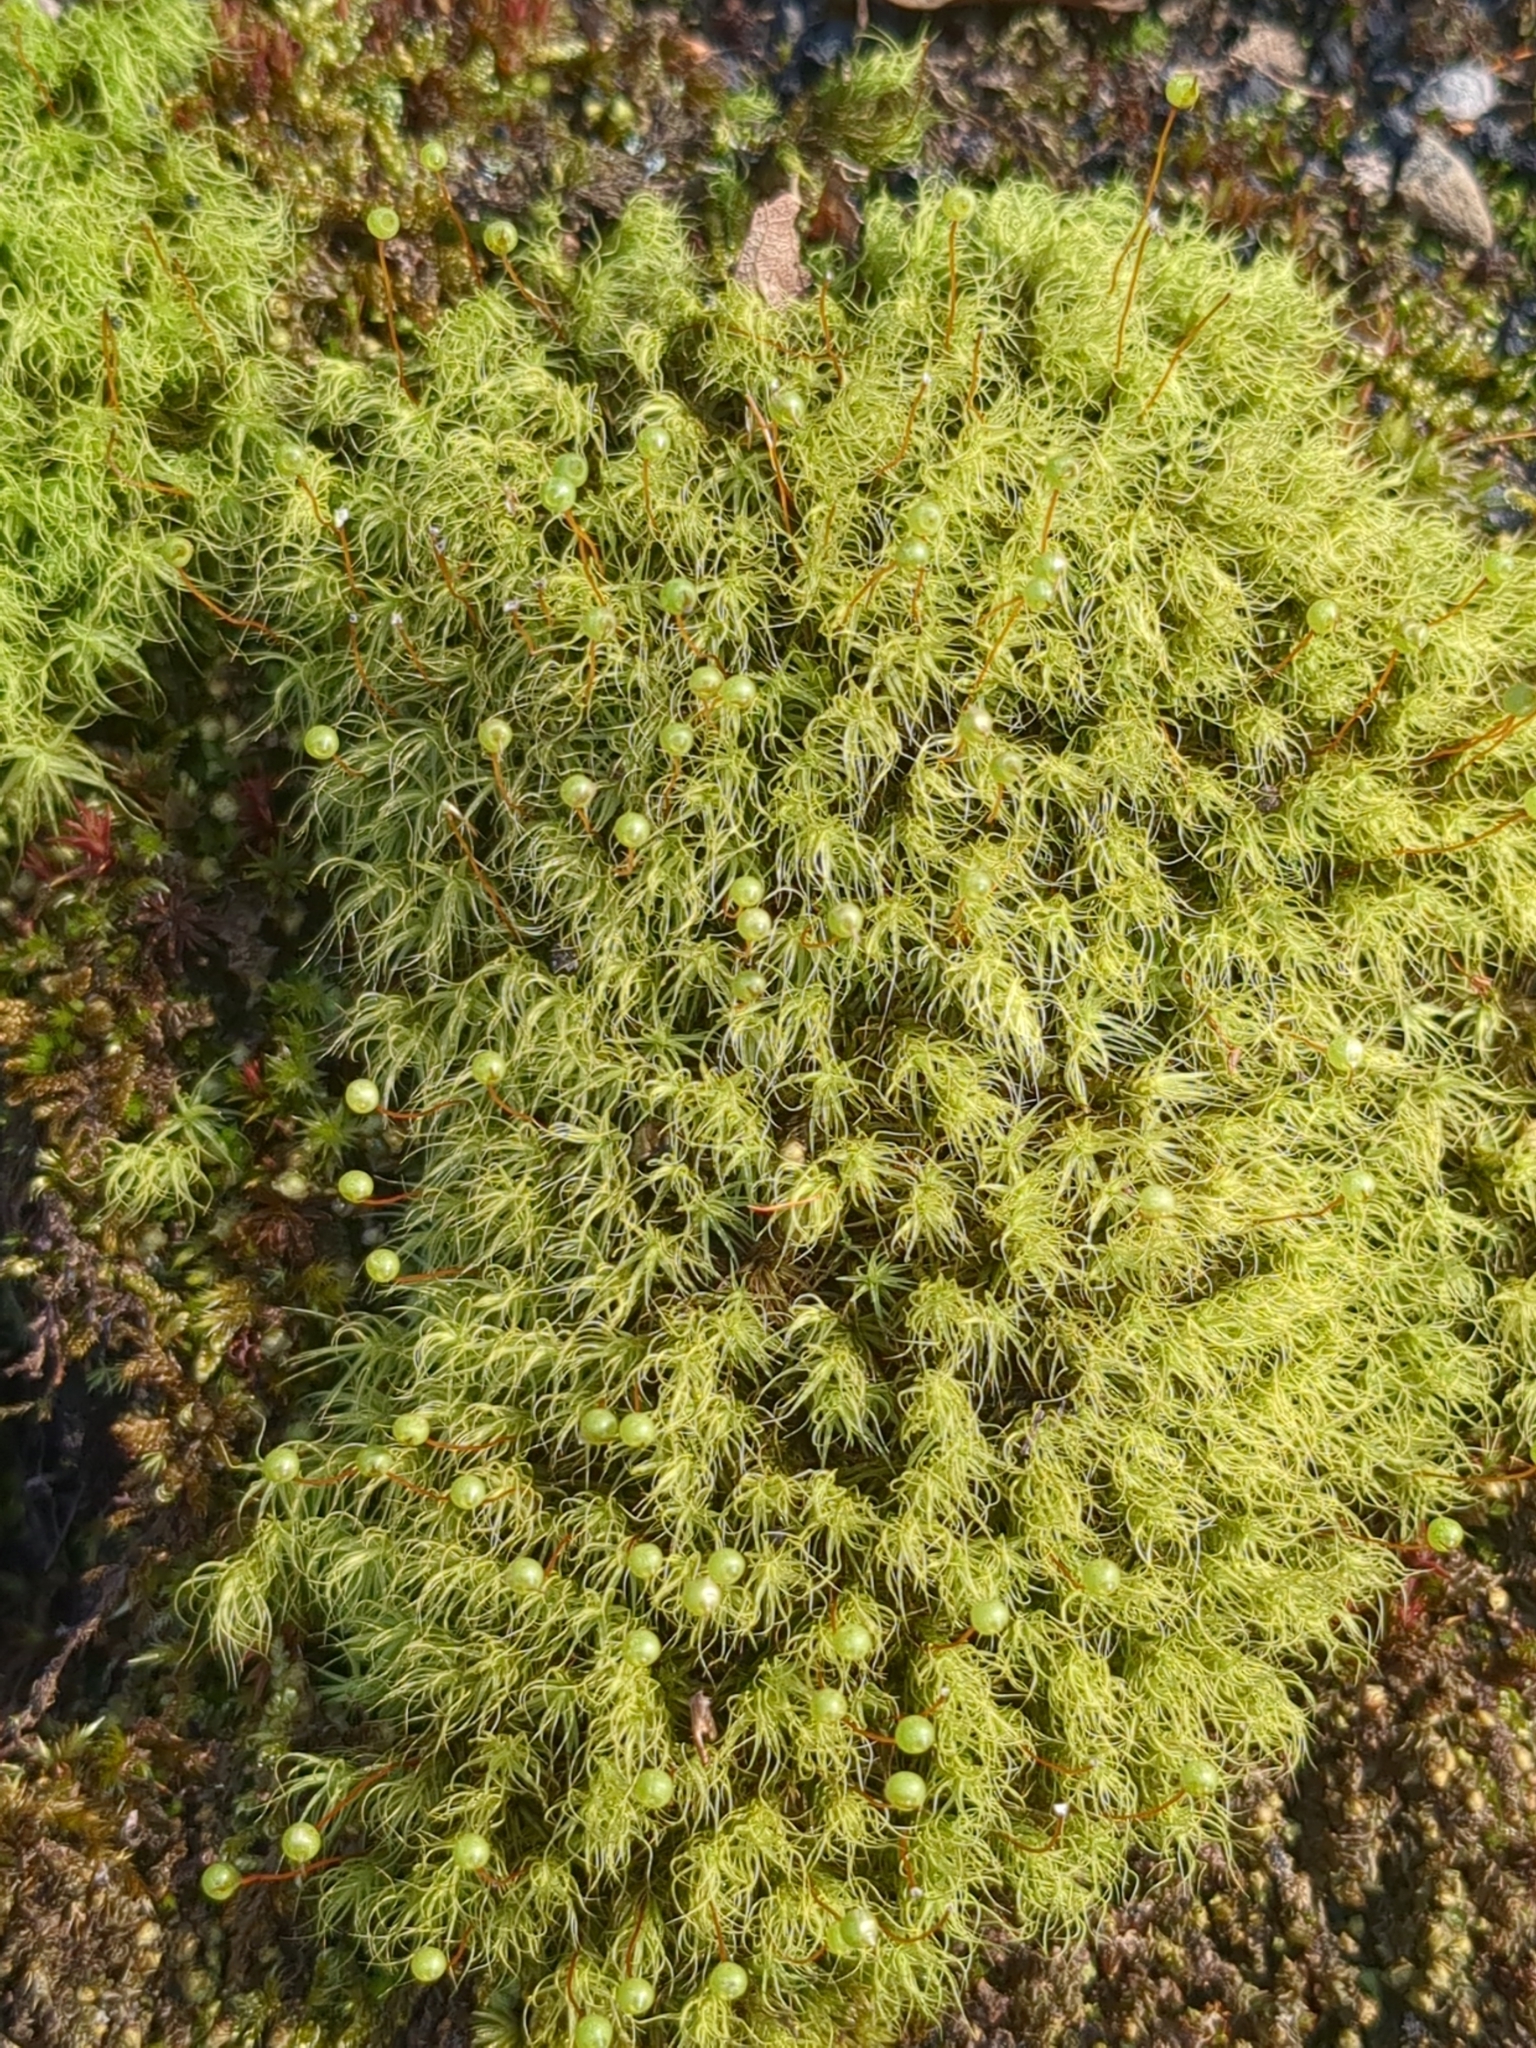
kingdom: Plantae
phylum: Bryophyta
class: Bryopsida
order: Bartramiales
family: Bartramiaceae
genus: Bartramia
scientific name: Bartramia ithyphylla
